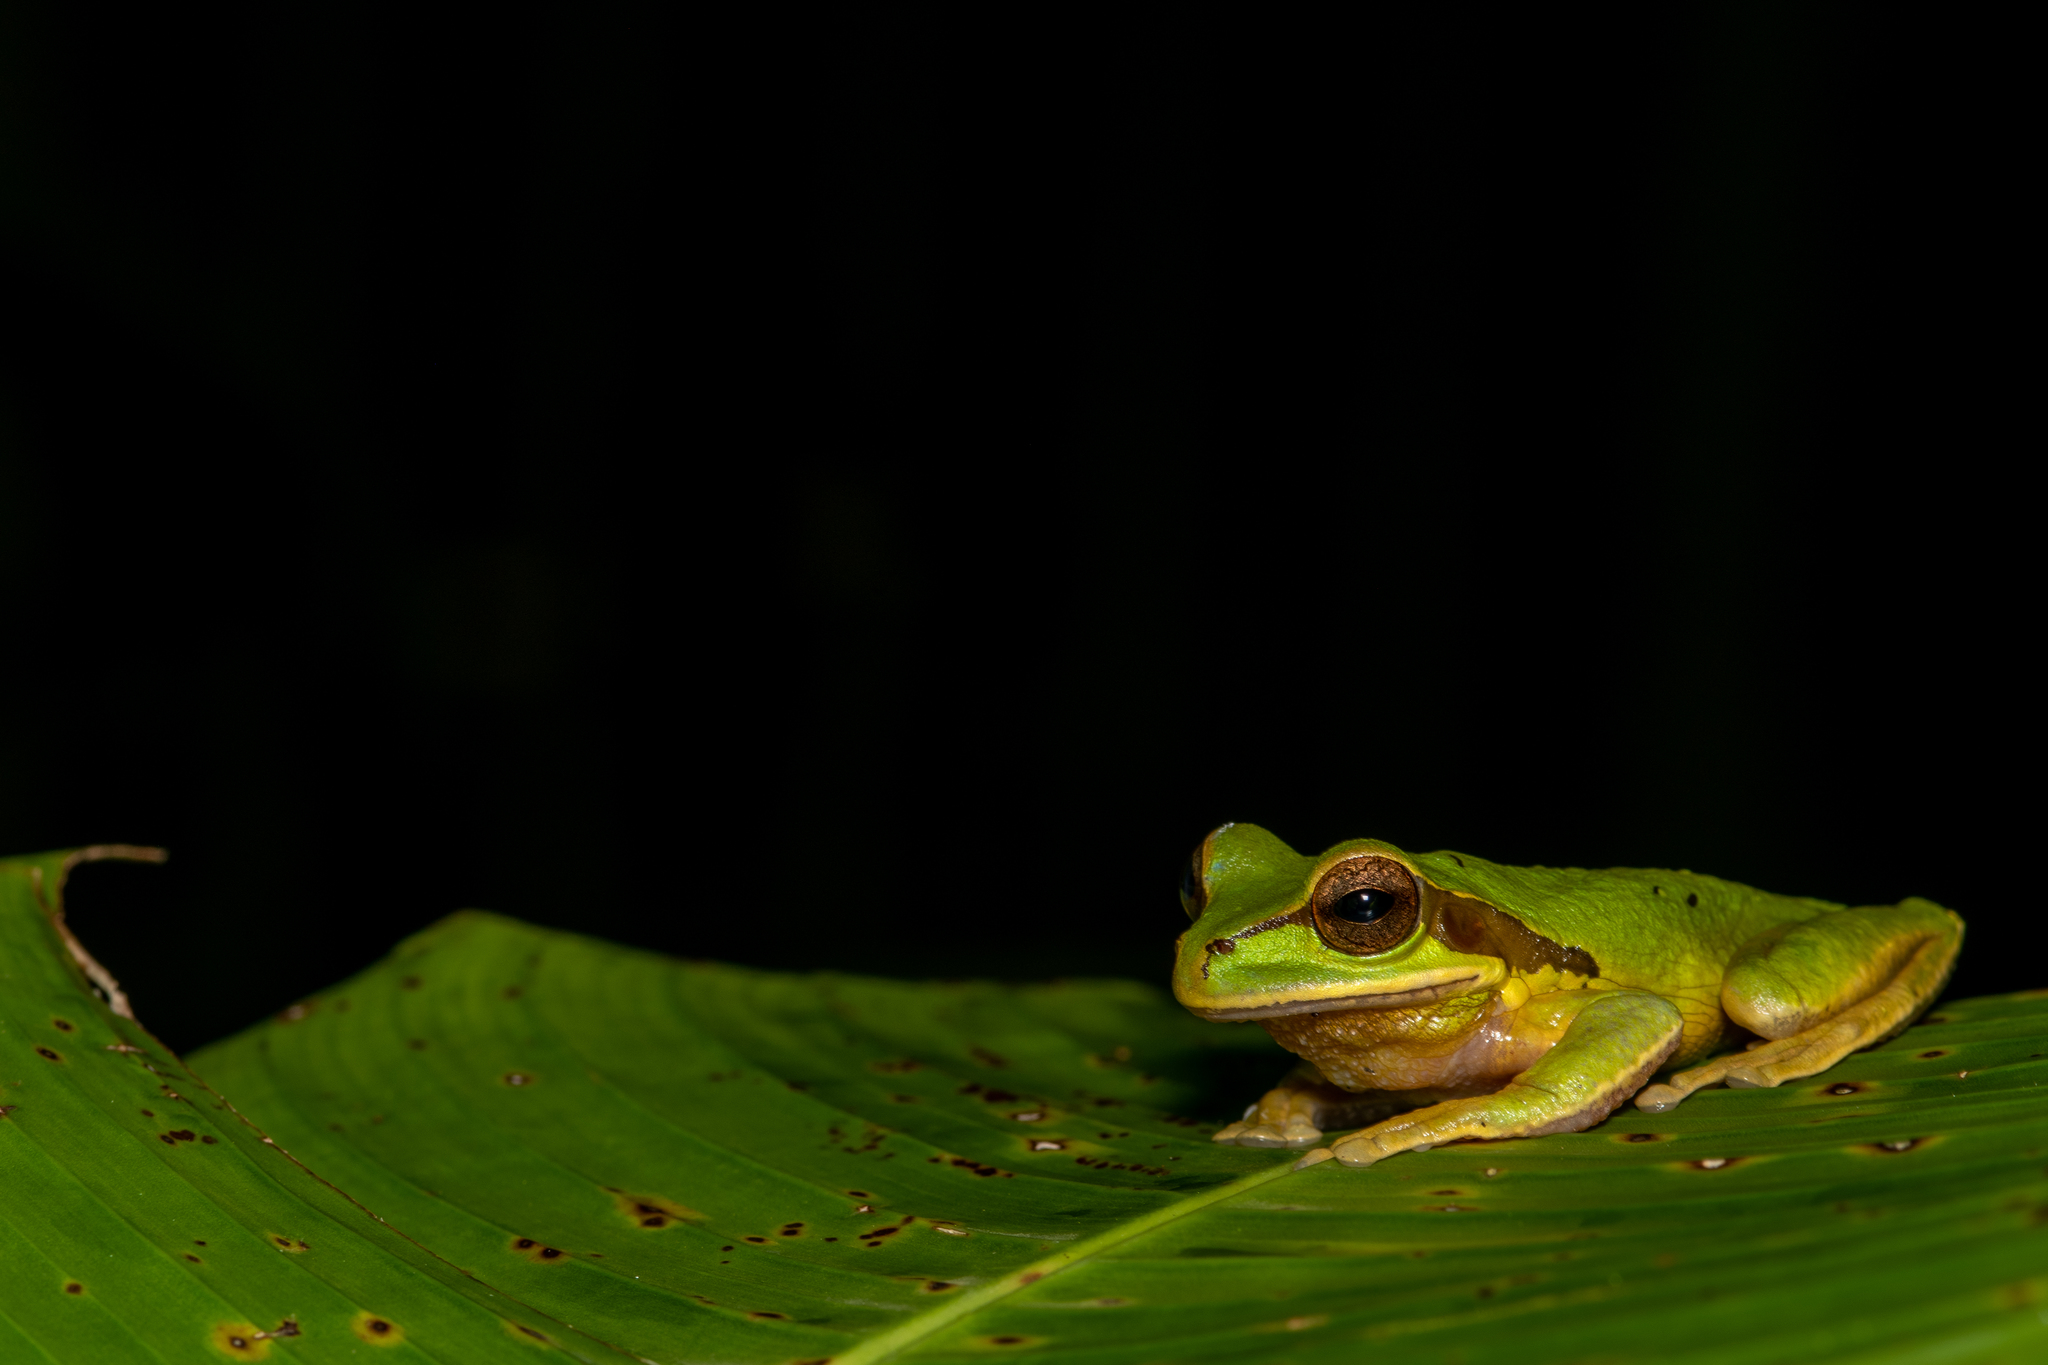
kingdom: Animalia
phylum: Chordata
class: Amphibia
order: Anura
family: Hylidae
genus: Smilisca
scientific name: Smilisca phaeota
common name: Central american smilisca
